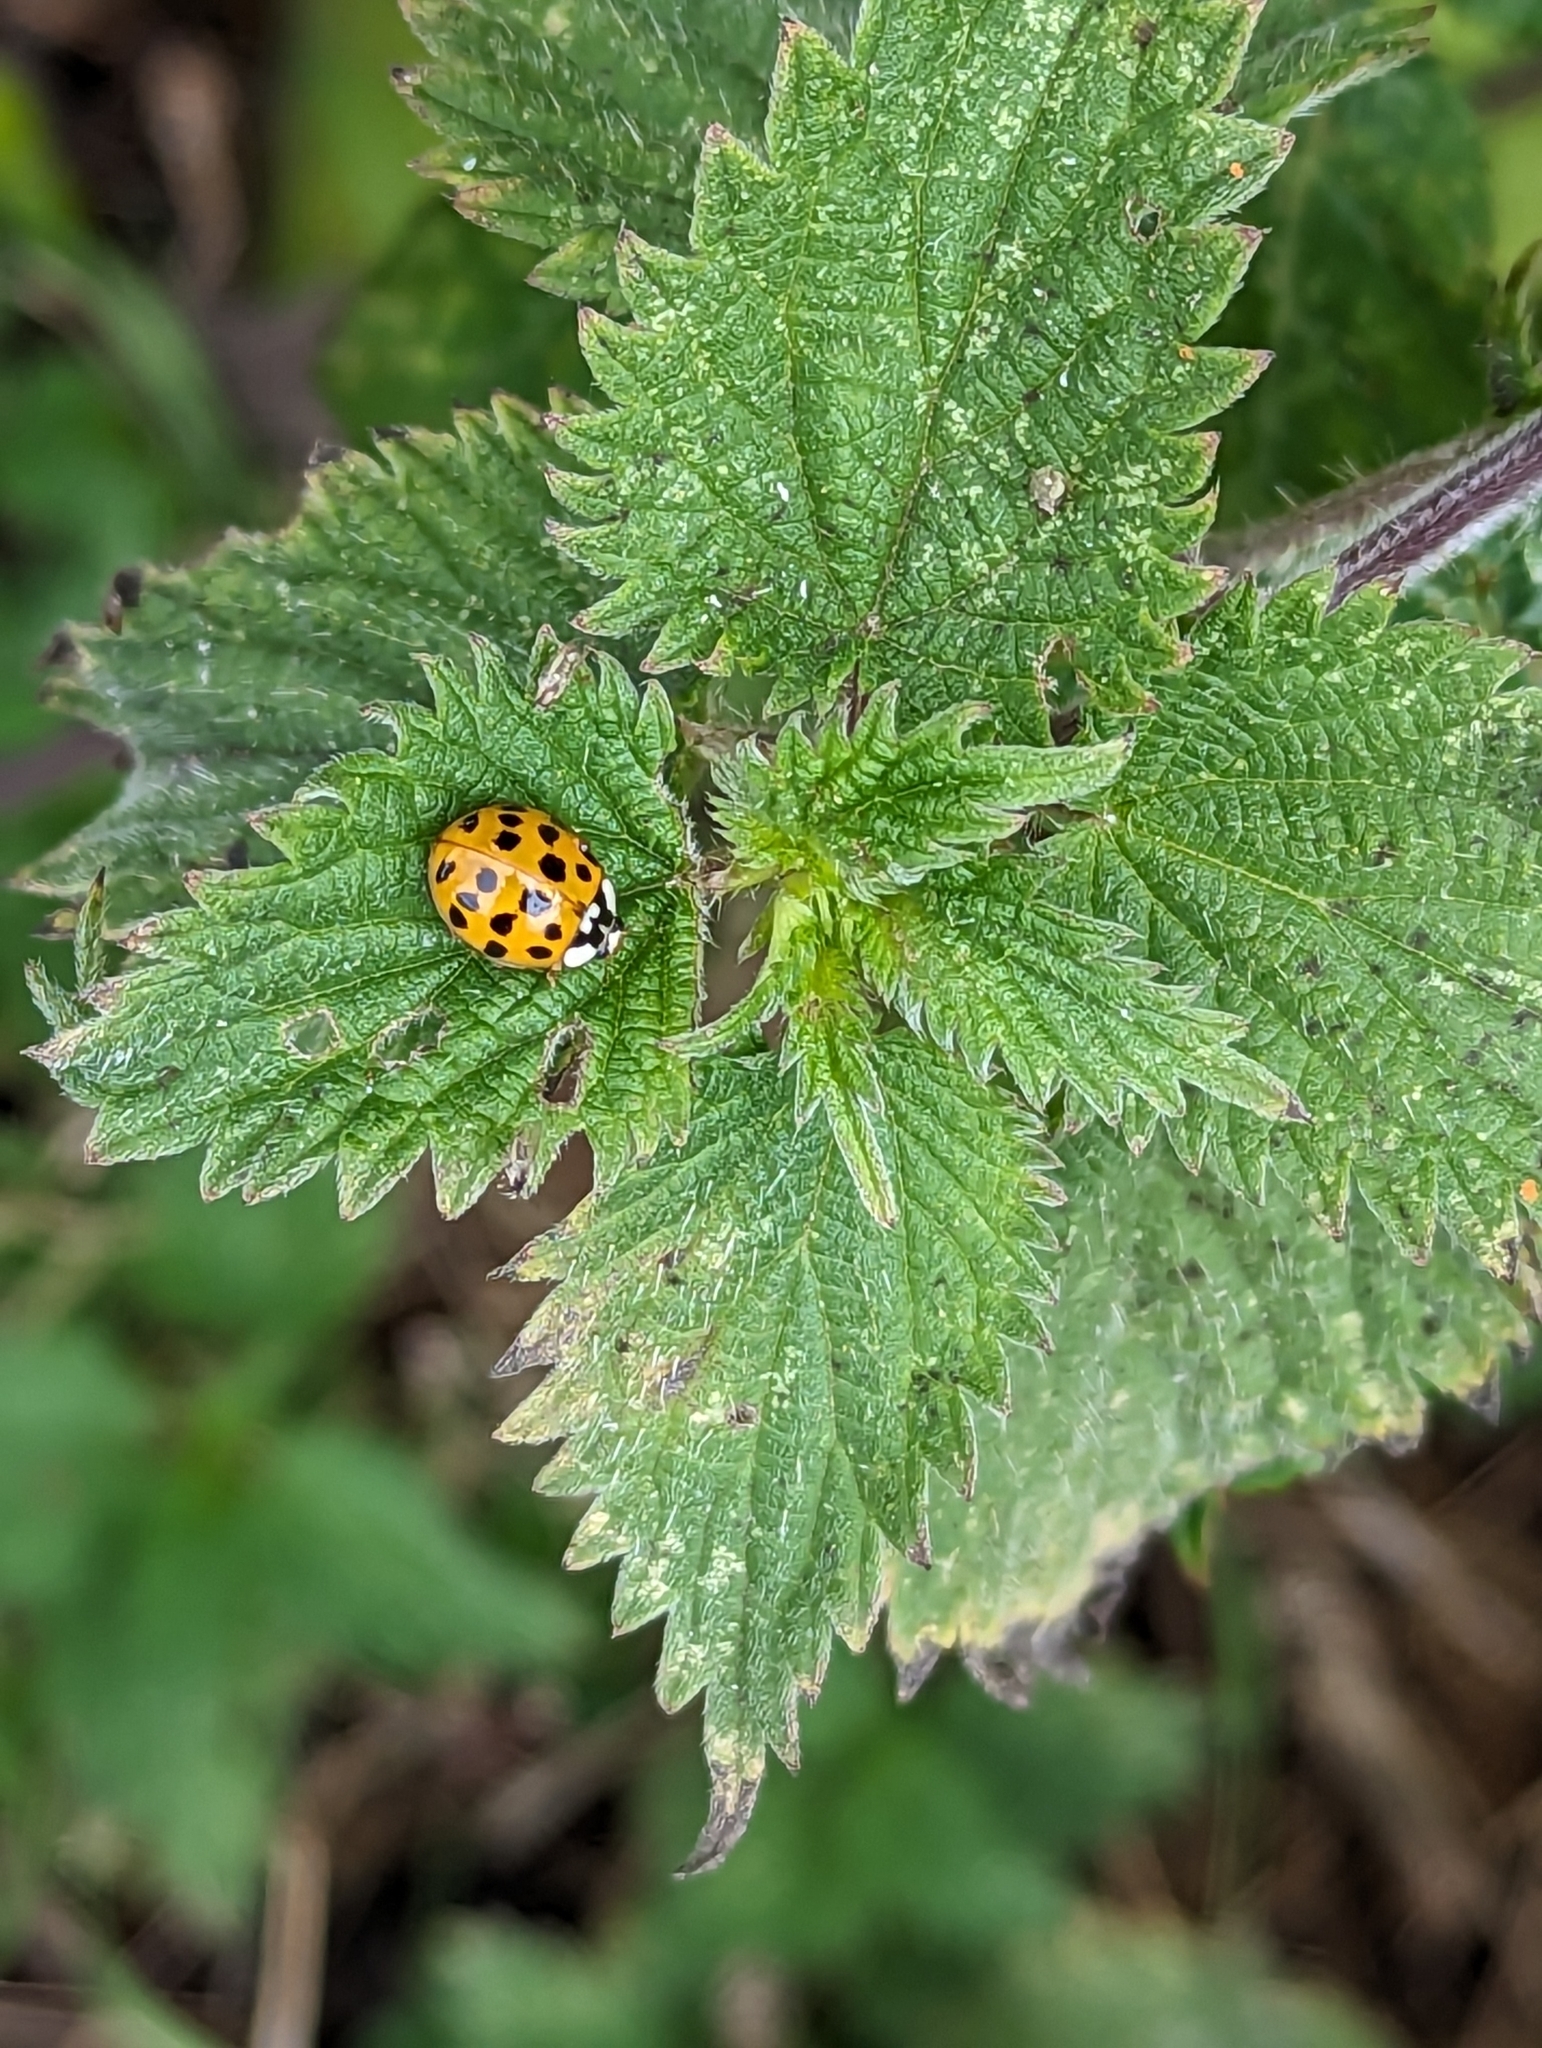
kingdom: Animalia
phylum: Arthropoda
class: Insecta
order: Coleoptera
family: Coccinellidae
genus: Harmonia
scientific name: Harmonia axyridis
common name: Harlequin ladybird
